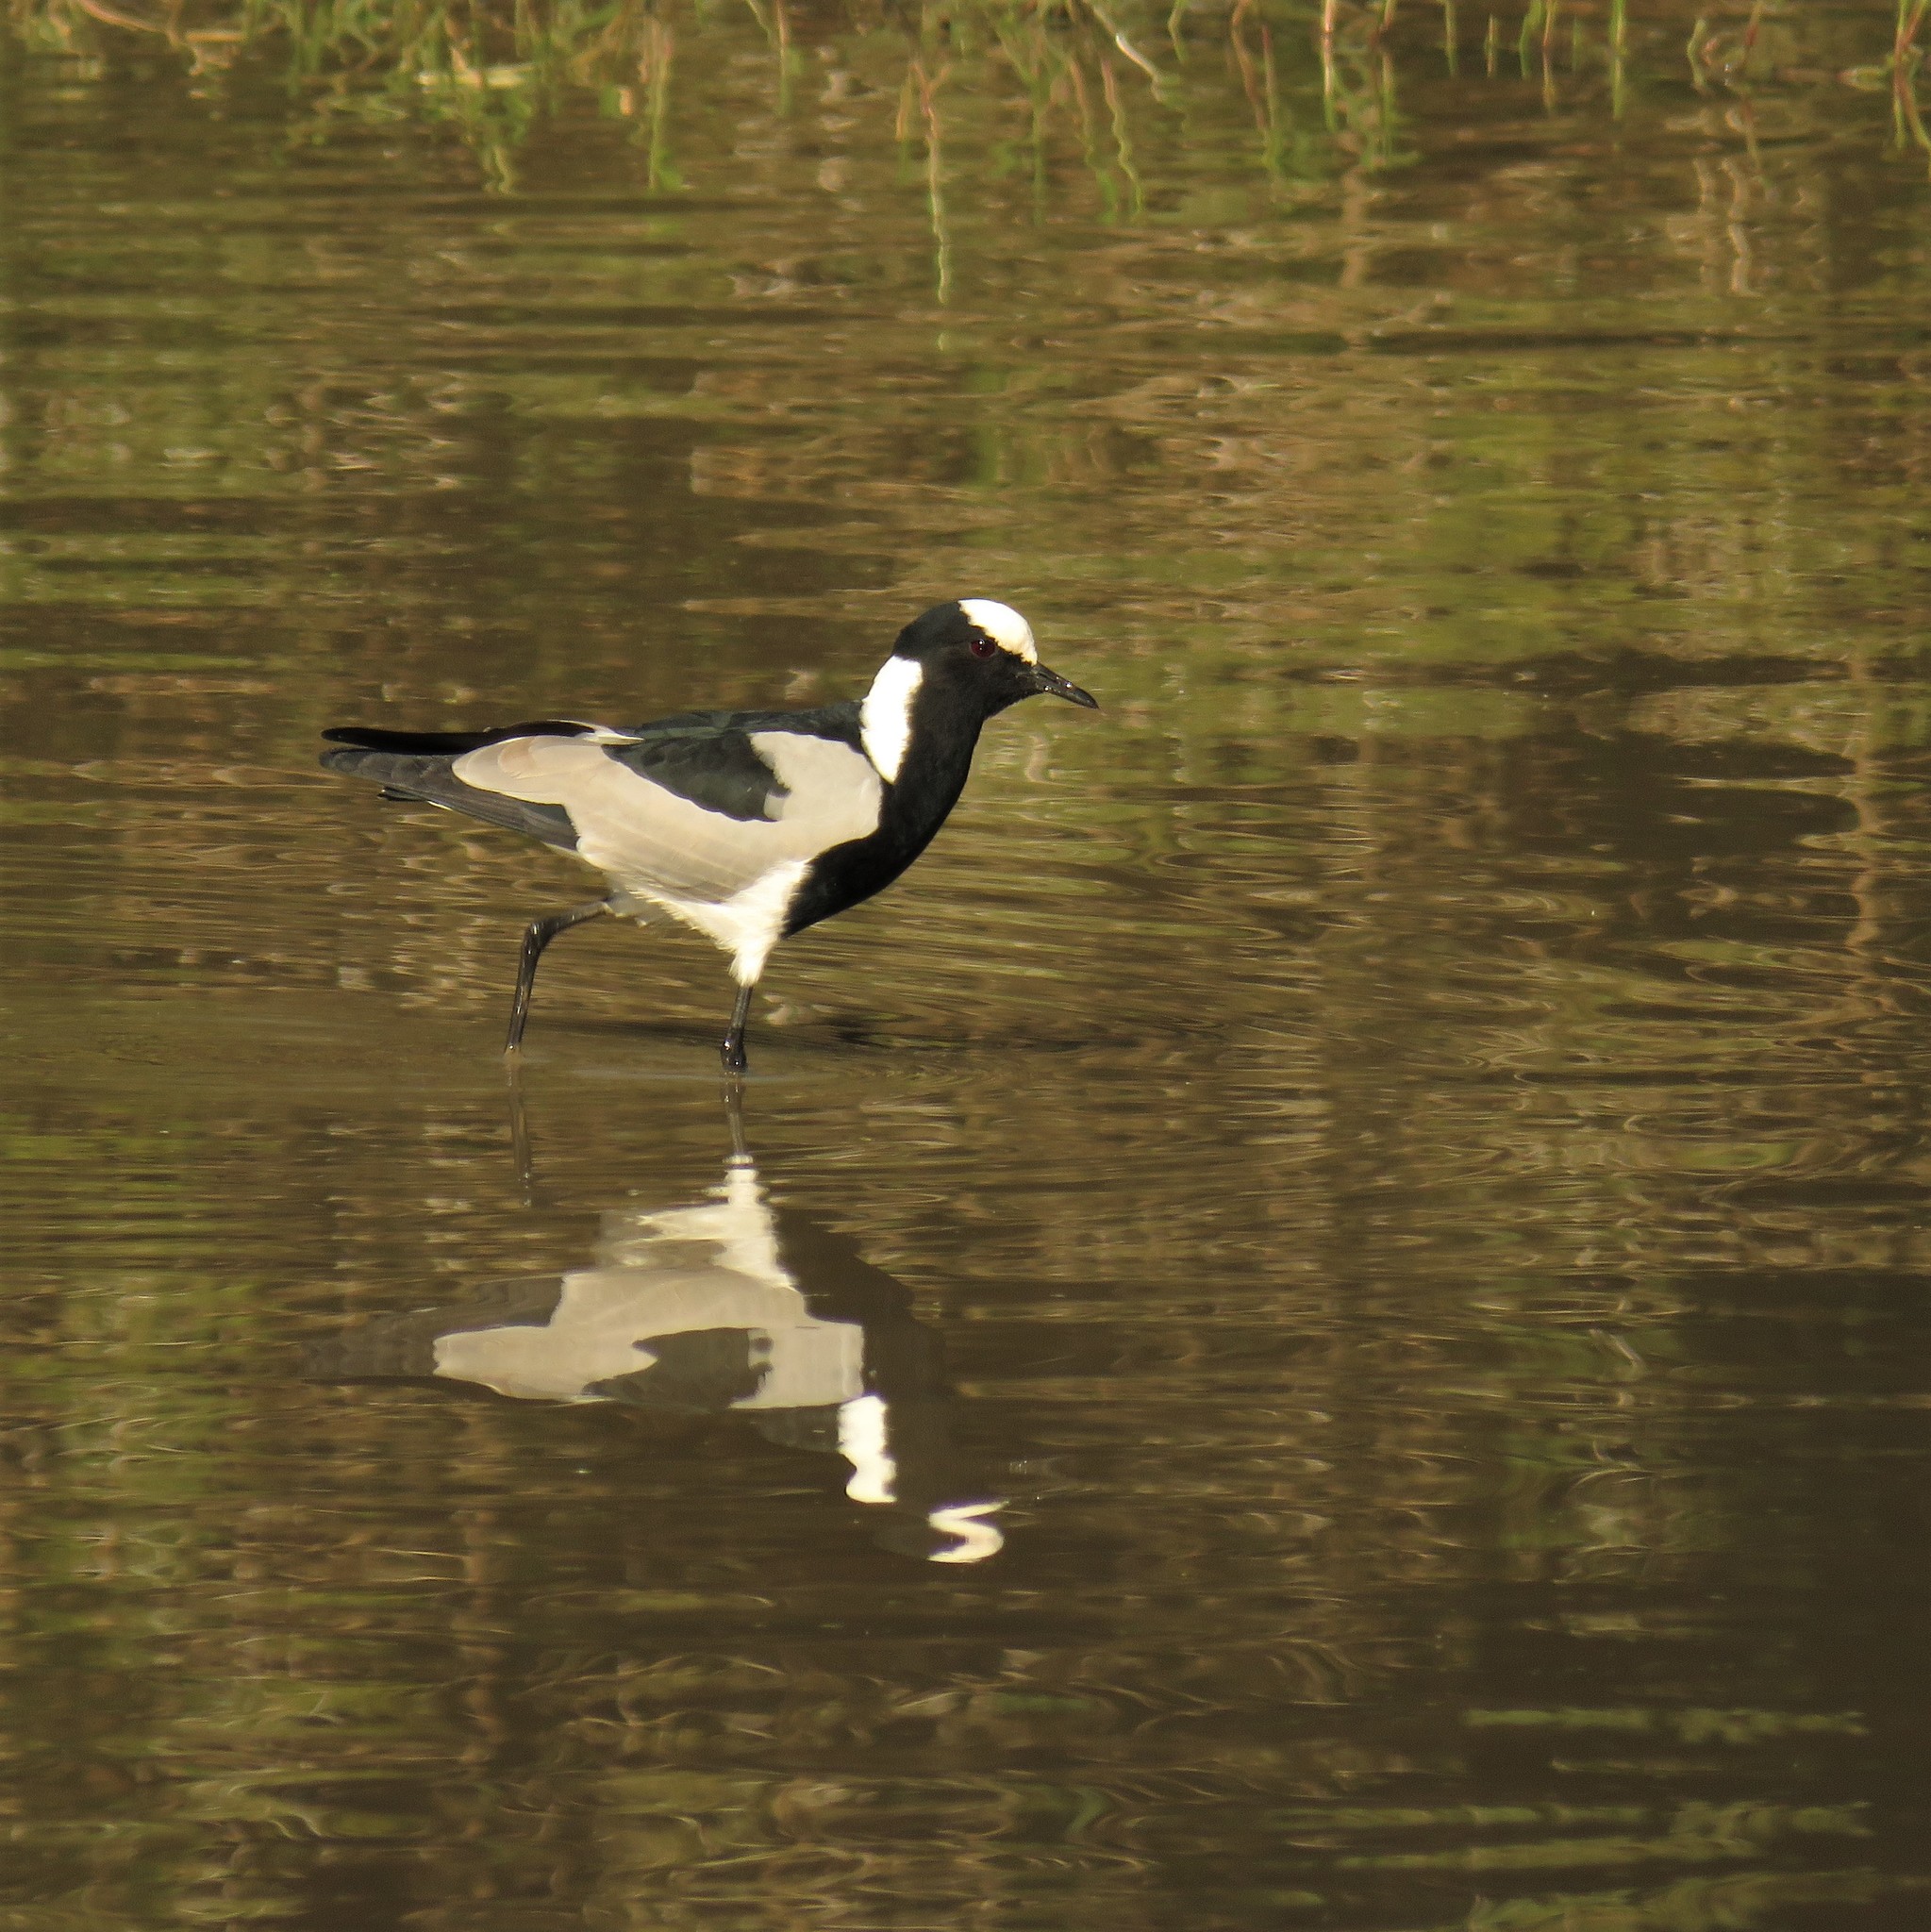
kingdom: Animalia
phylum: Chordata
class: Aves
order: Charadriiformes
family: Charadriidae
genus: Vanellus
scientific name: Vanellus armatus
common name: Blacksmith lapwing
